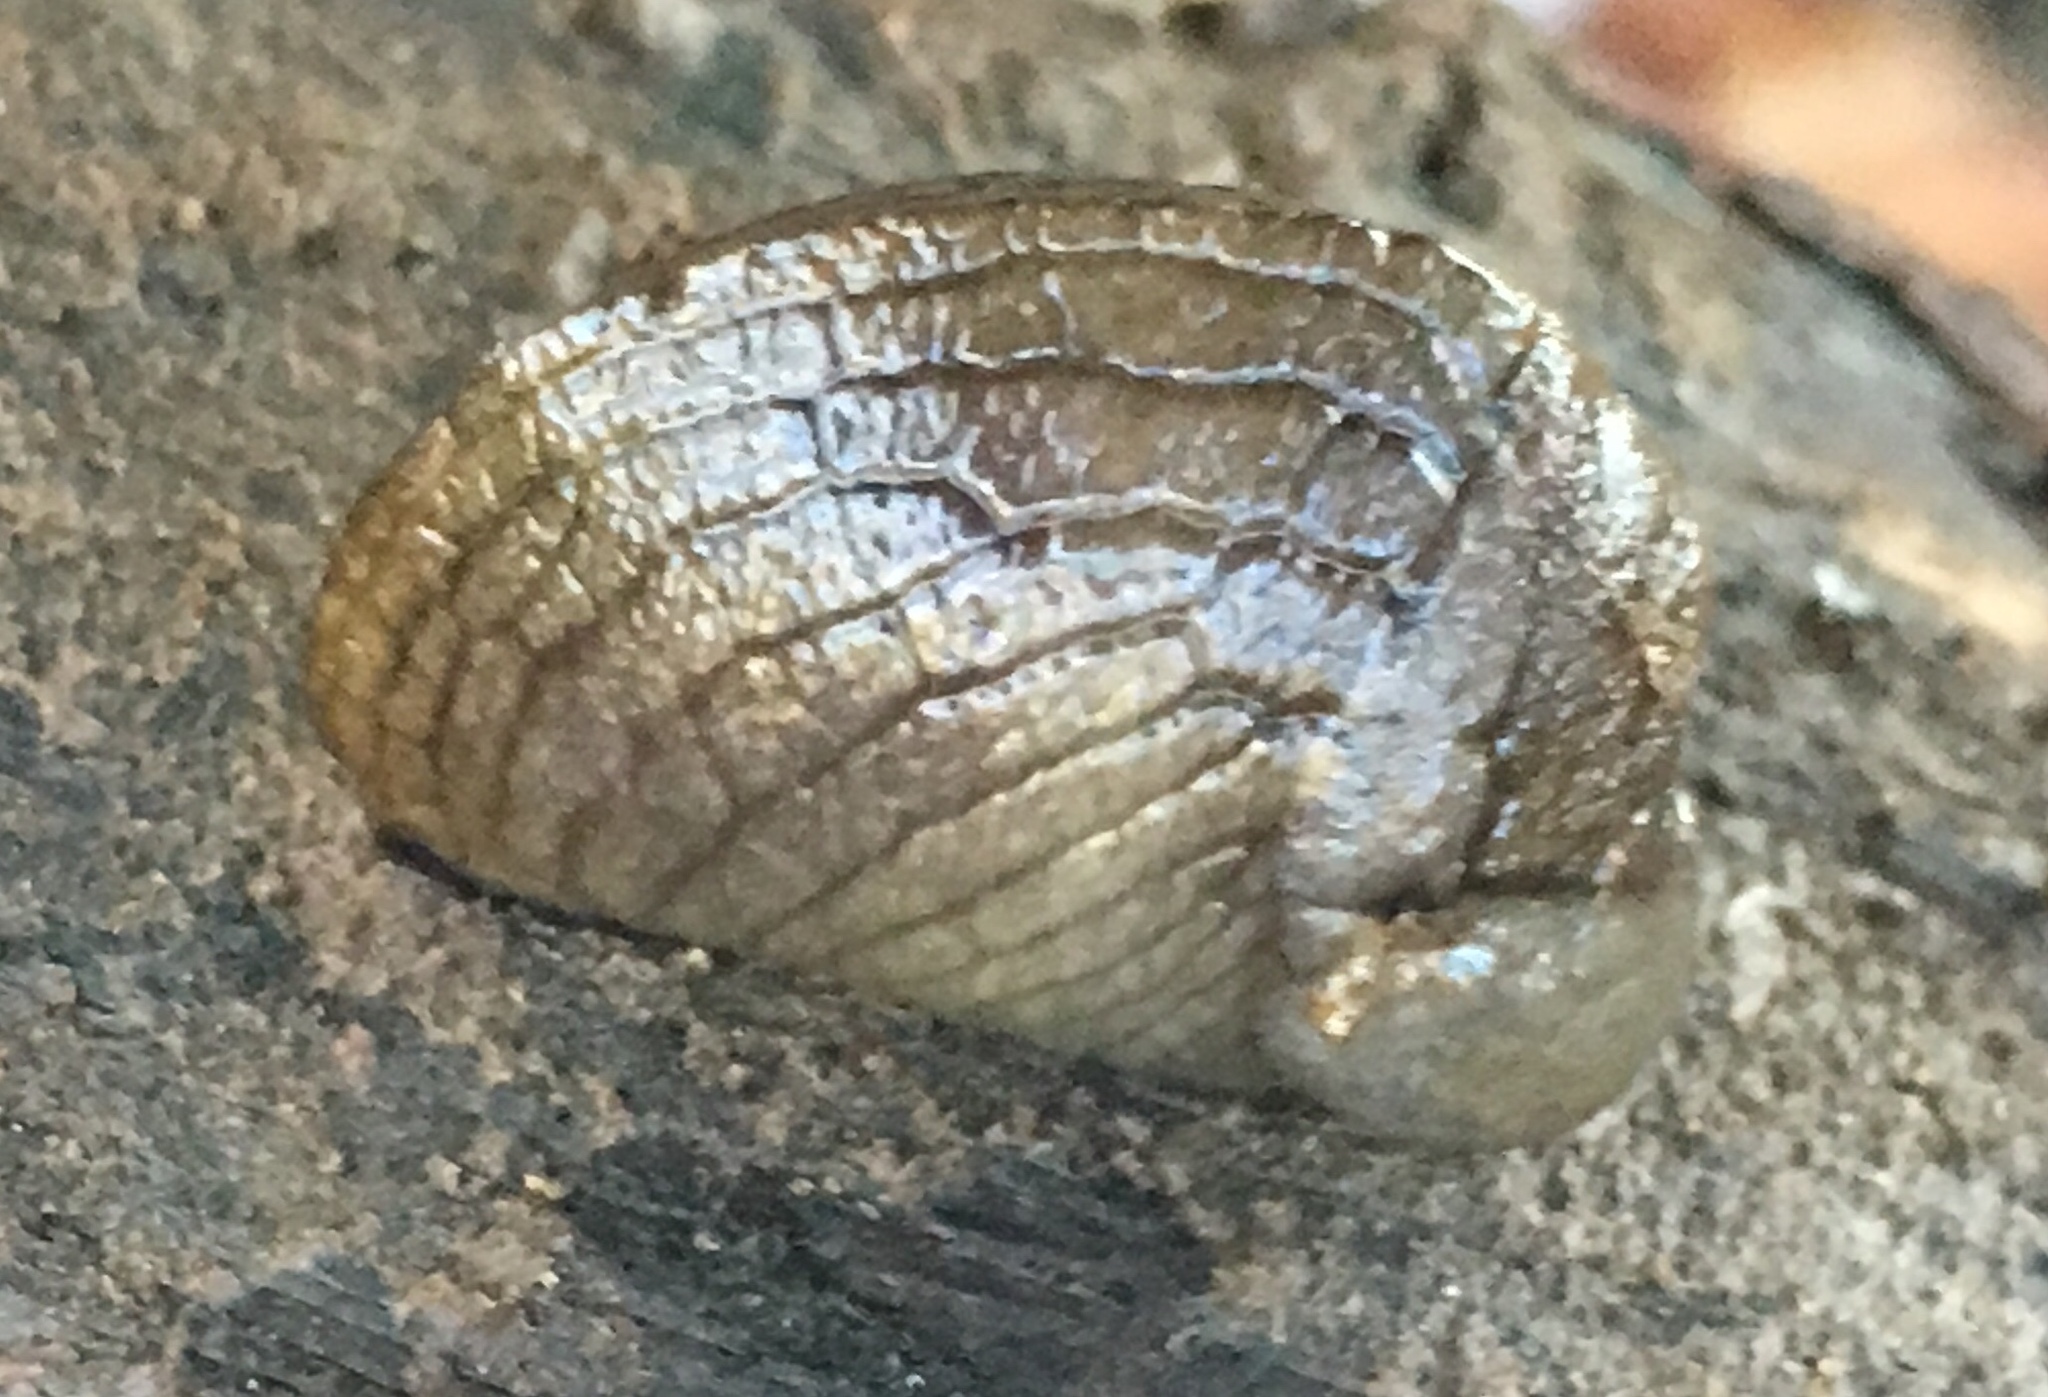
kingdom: Animalia
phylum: Mollusca
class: Gastropoda
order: Stylommatophora
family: Milacidae
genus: Milax
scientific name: Milax gagates
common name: Greenhouse slug
